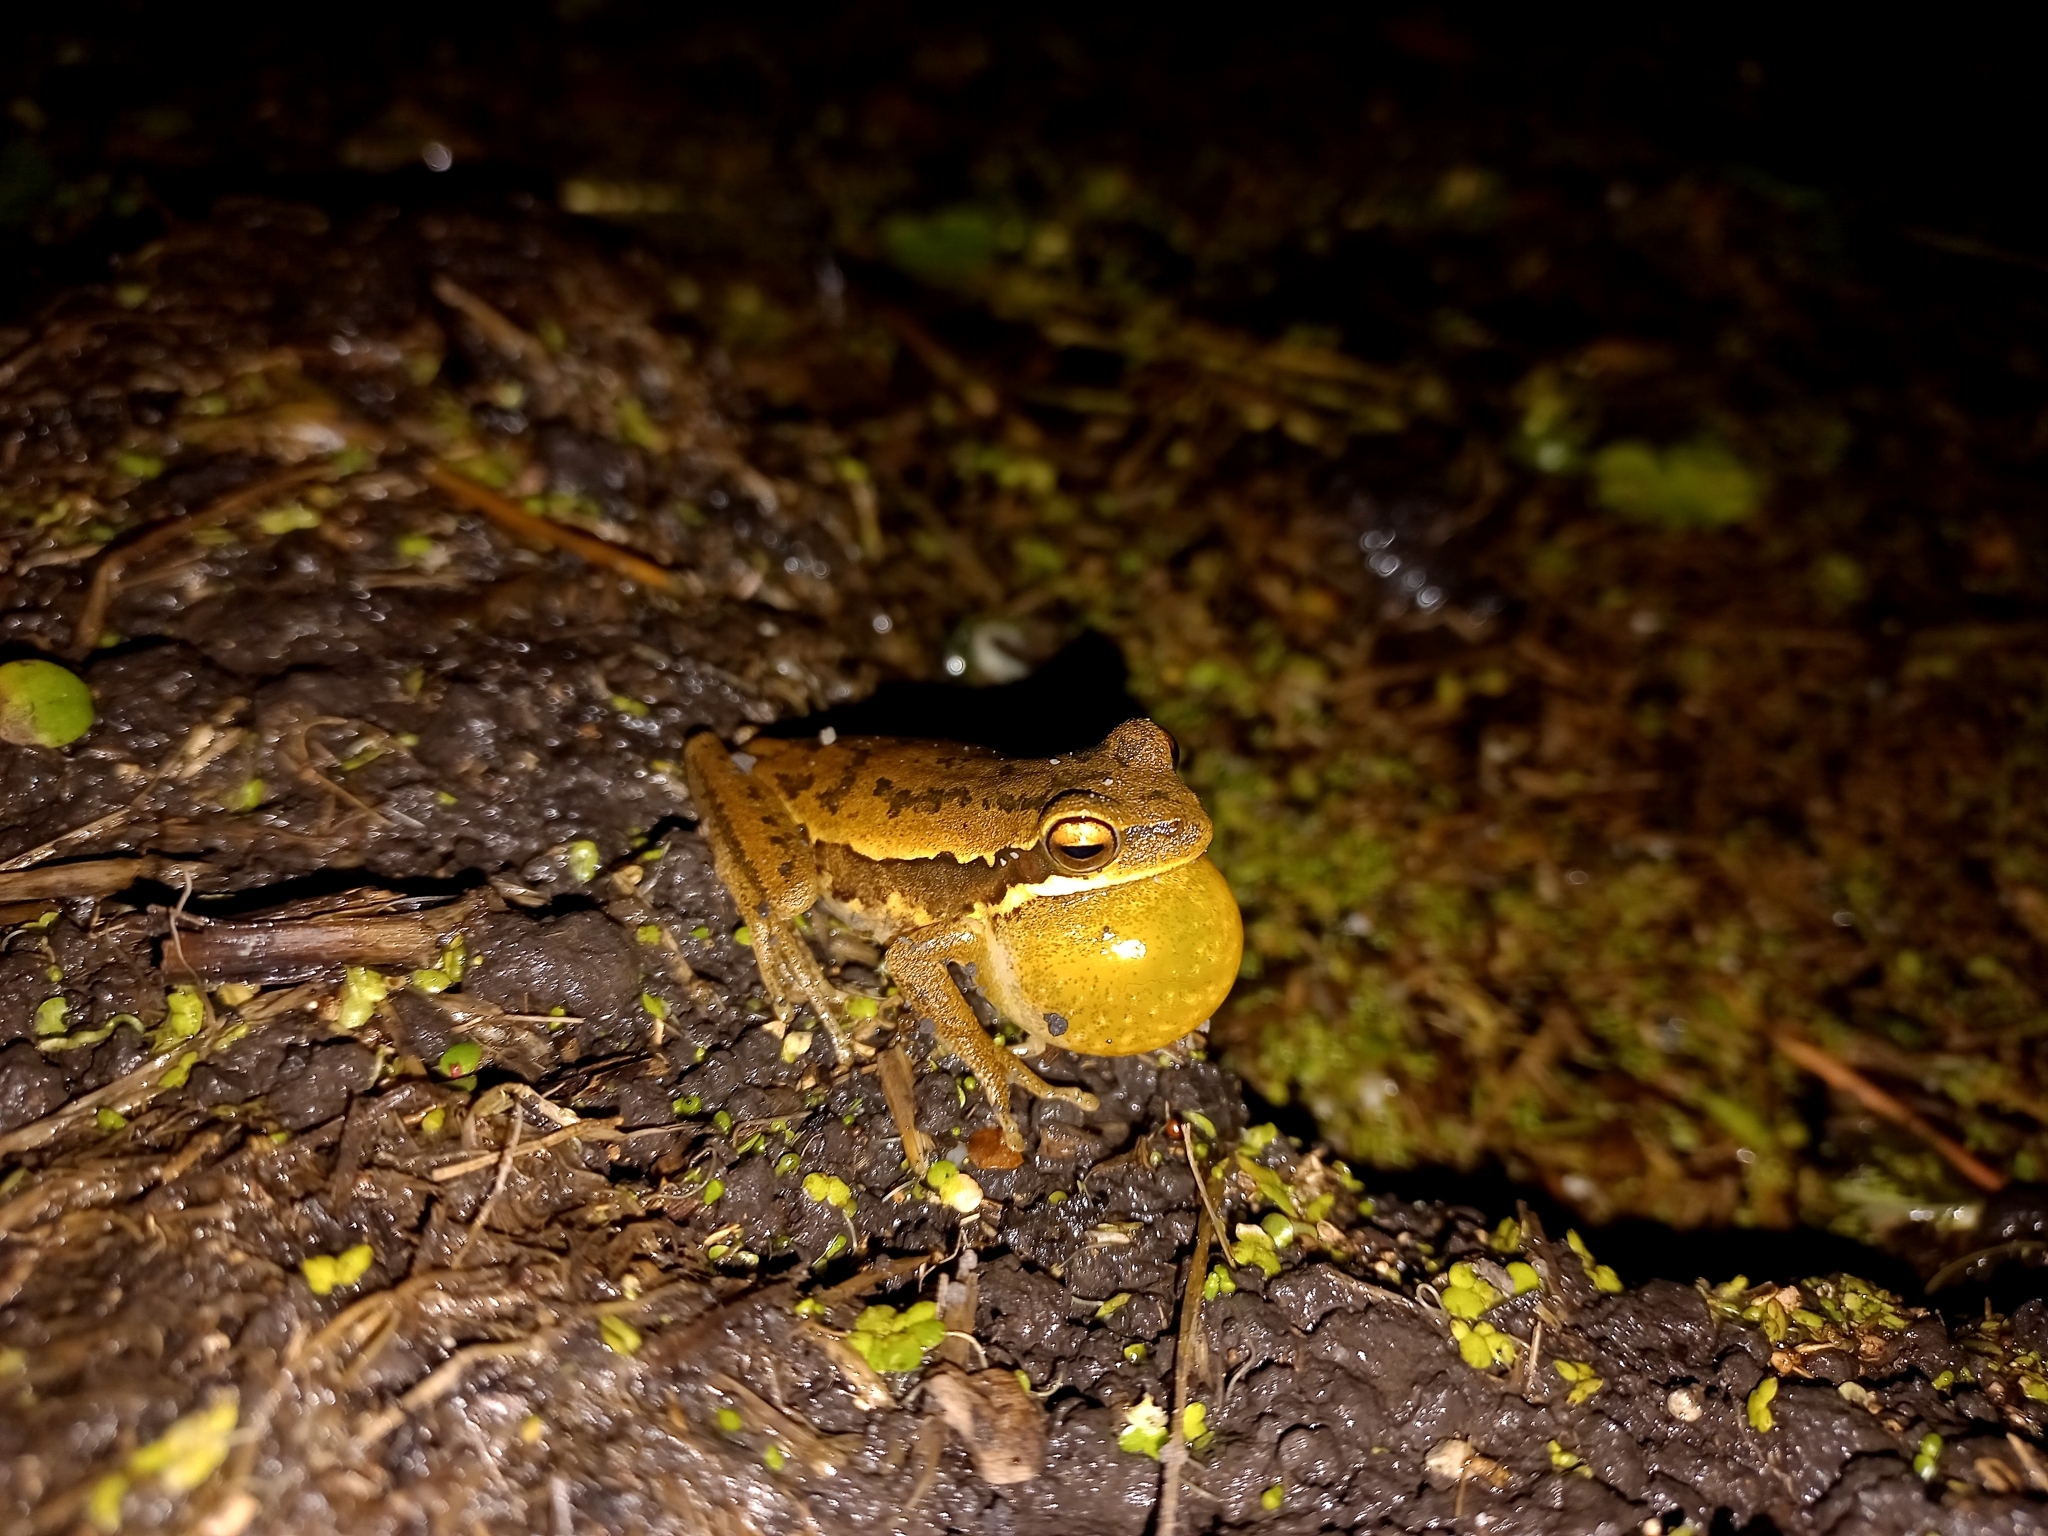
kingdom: Animalia
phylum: Chordata
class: Amphibia
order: Anura
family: Hylidae
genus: Boana
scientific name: Boana pulchella
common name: Montevideo treefrog
